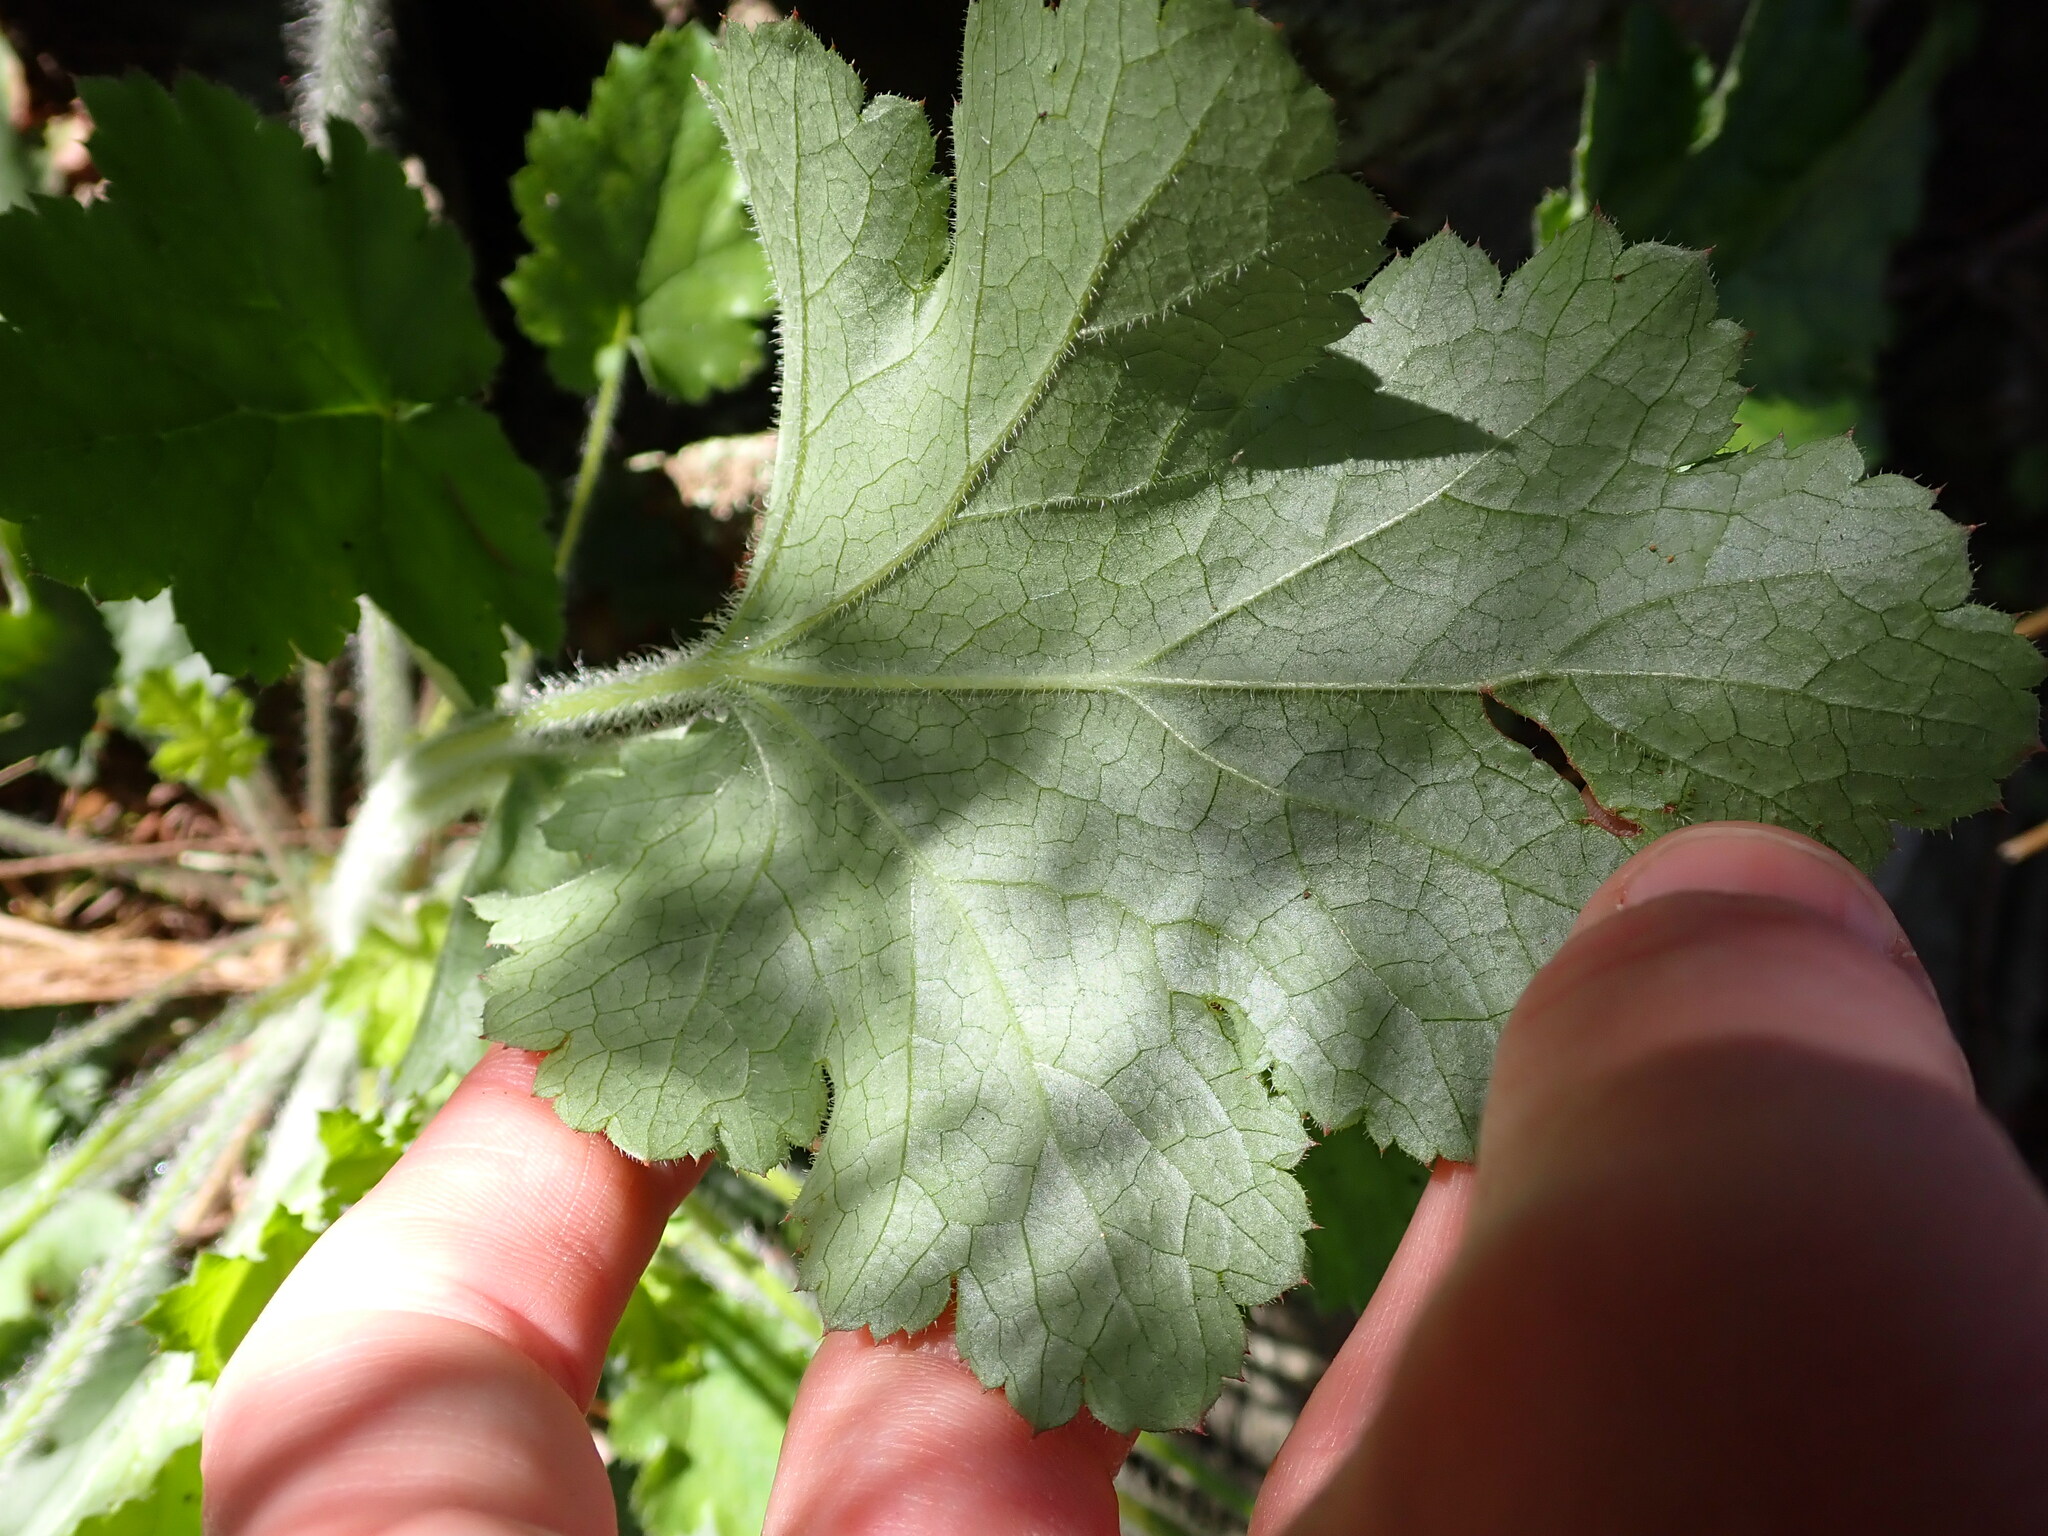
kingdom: Plantae
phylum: Tracheophyta
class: Magnoliopsida
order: Saxifragales
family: Saxifragaceae
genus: Heuchera
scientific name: Heuchera micrantha
